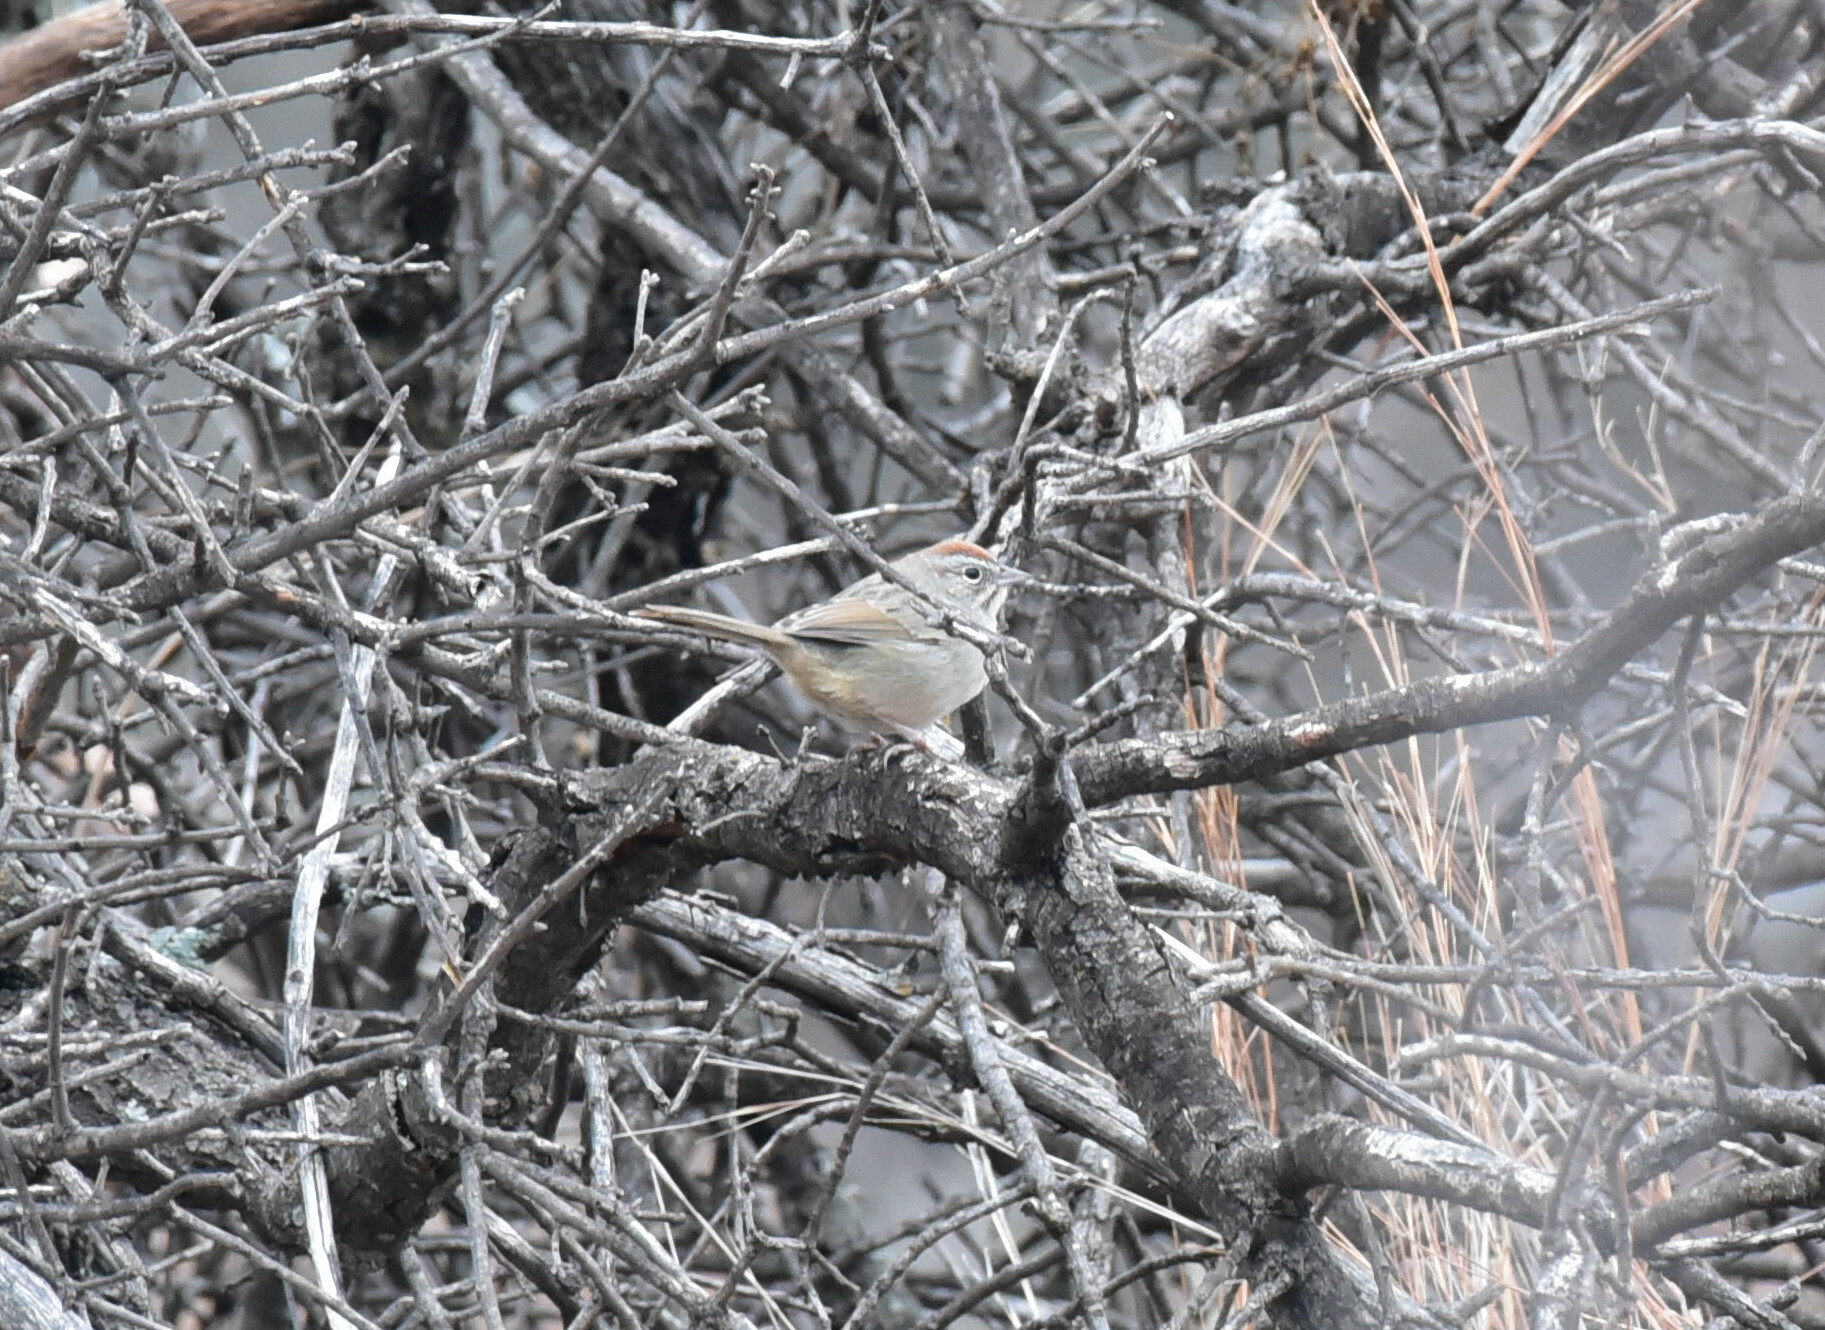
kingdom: Animalia
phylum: Chordata
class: Aves
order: Passeriformes
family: Passerellidae
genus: Aimophila
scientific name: Aimophila ruficeps
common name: Rufous-crowned sparrow
